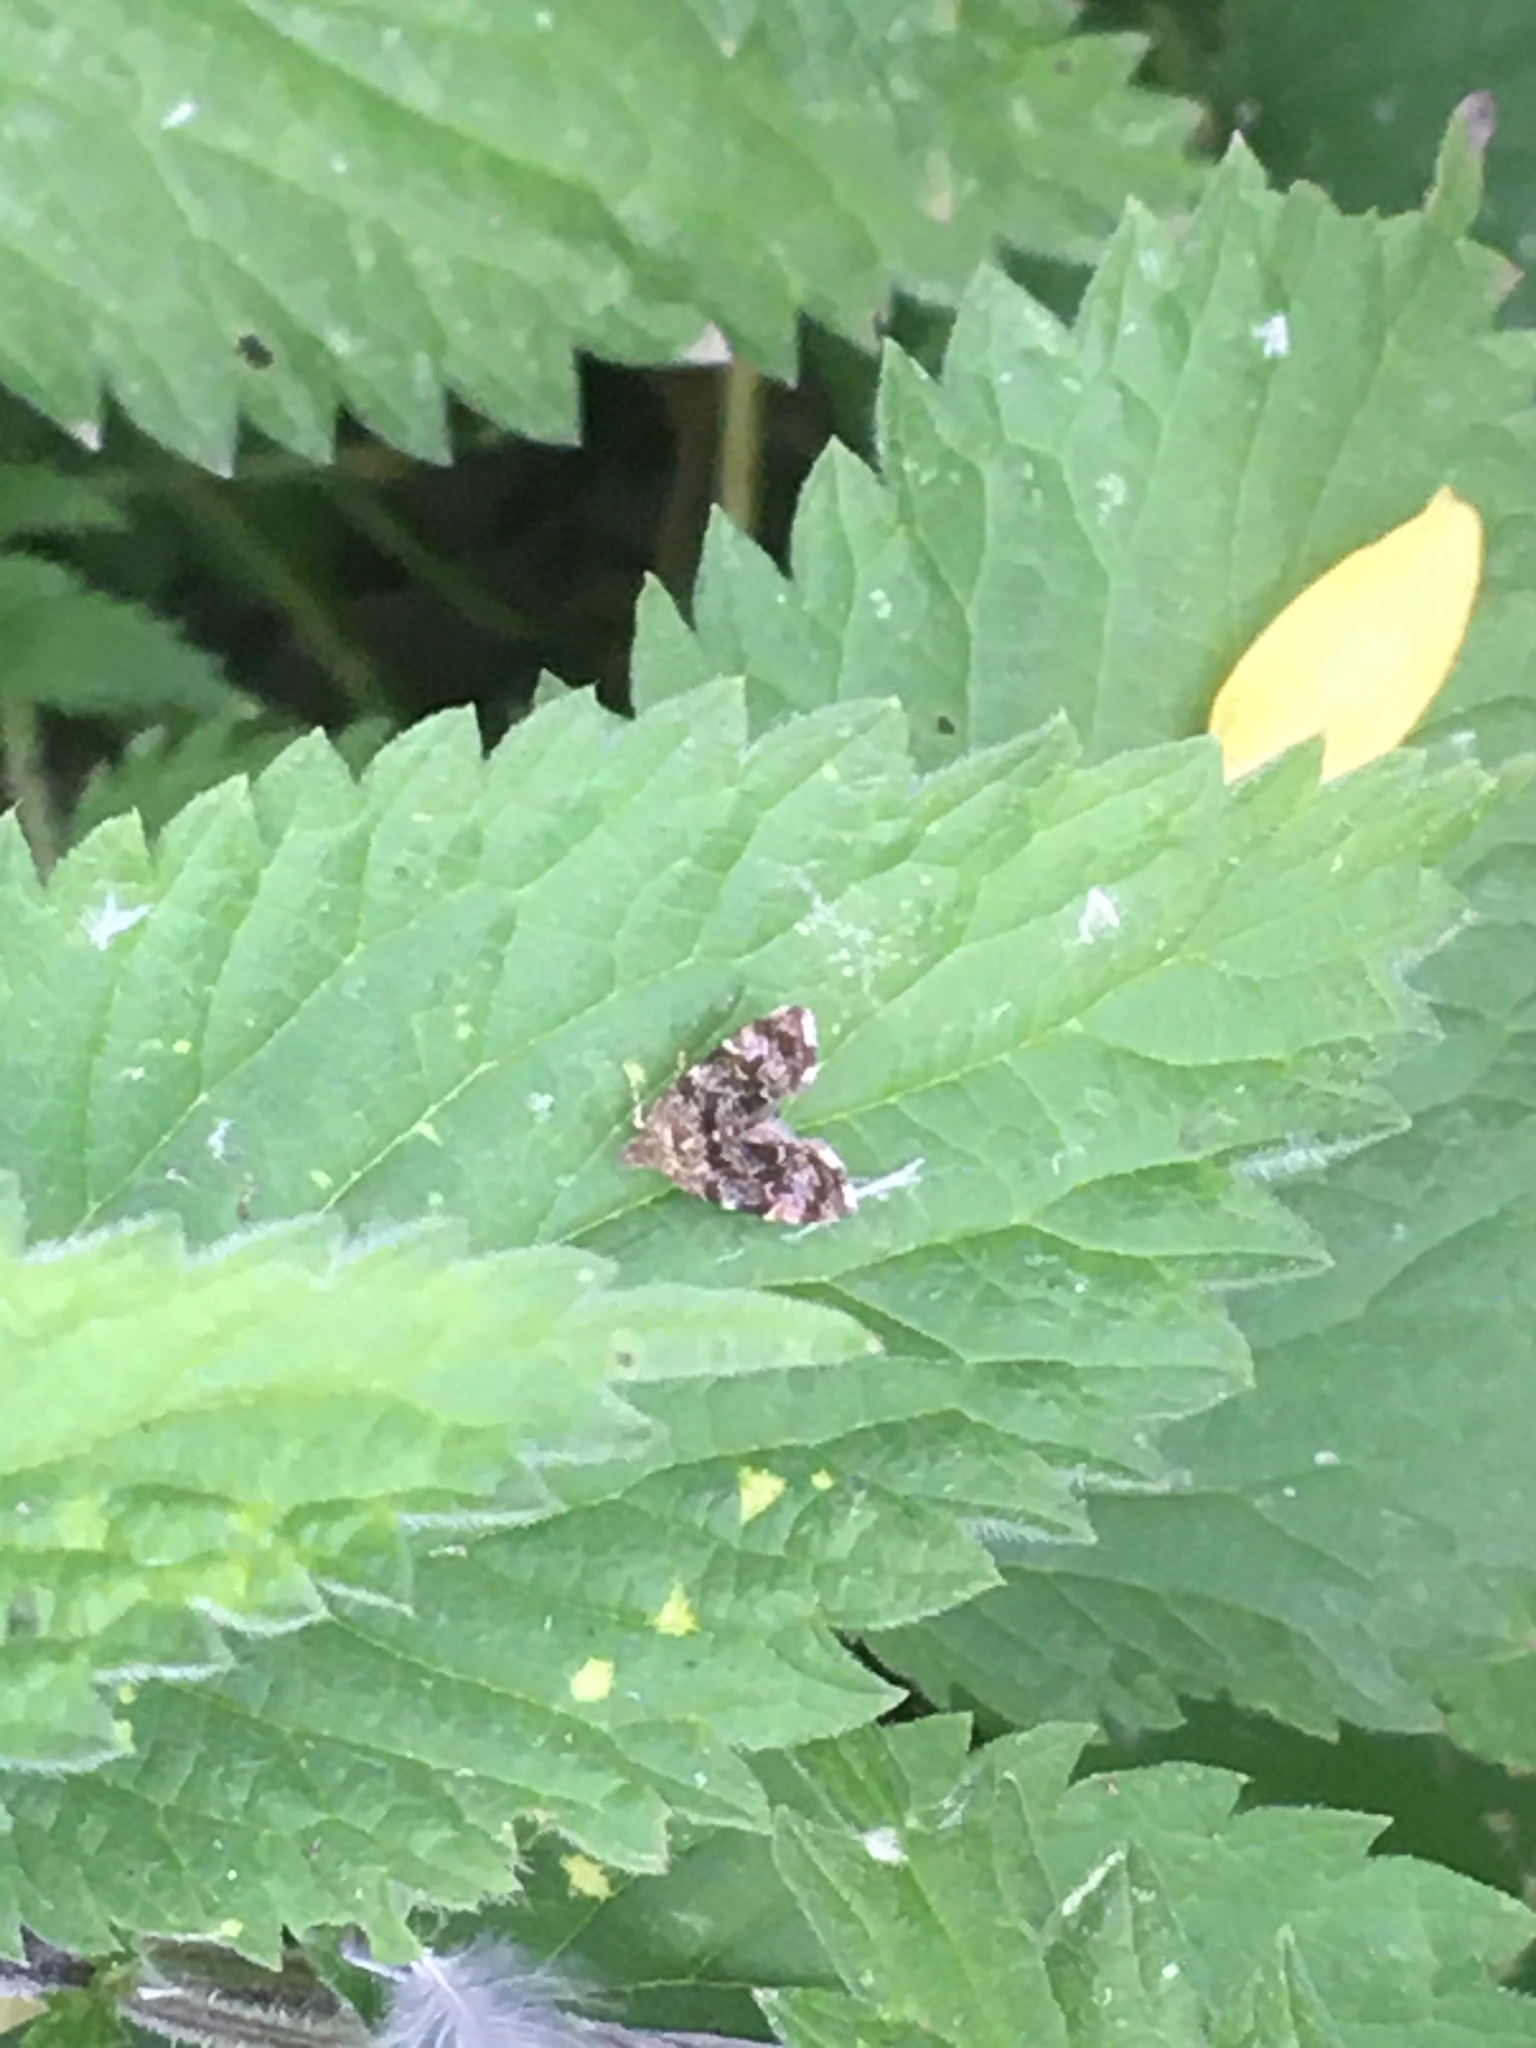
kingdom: Animalia
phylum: Arthropoda
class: Insecta
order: Lepidoptera
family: Choreutidae
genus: Anthophila
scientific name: Anthophila fabriciana
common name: Nettle-tap
